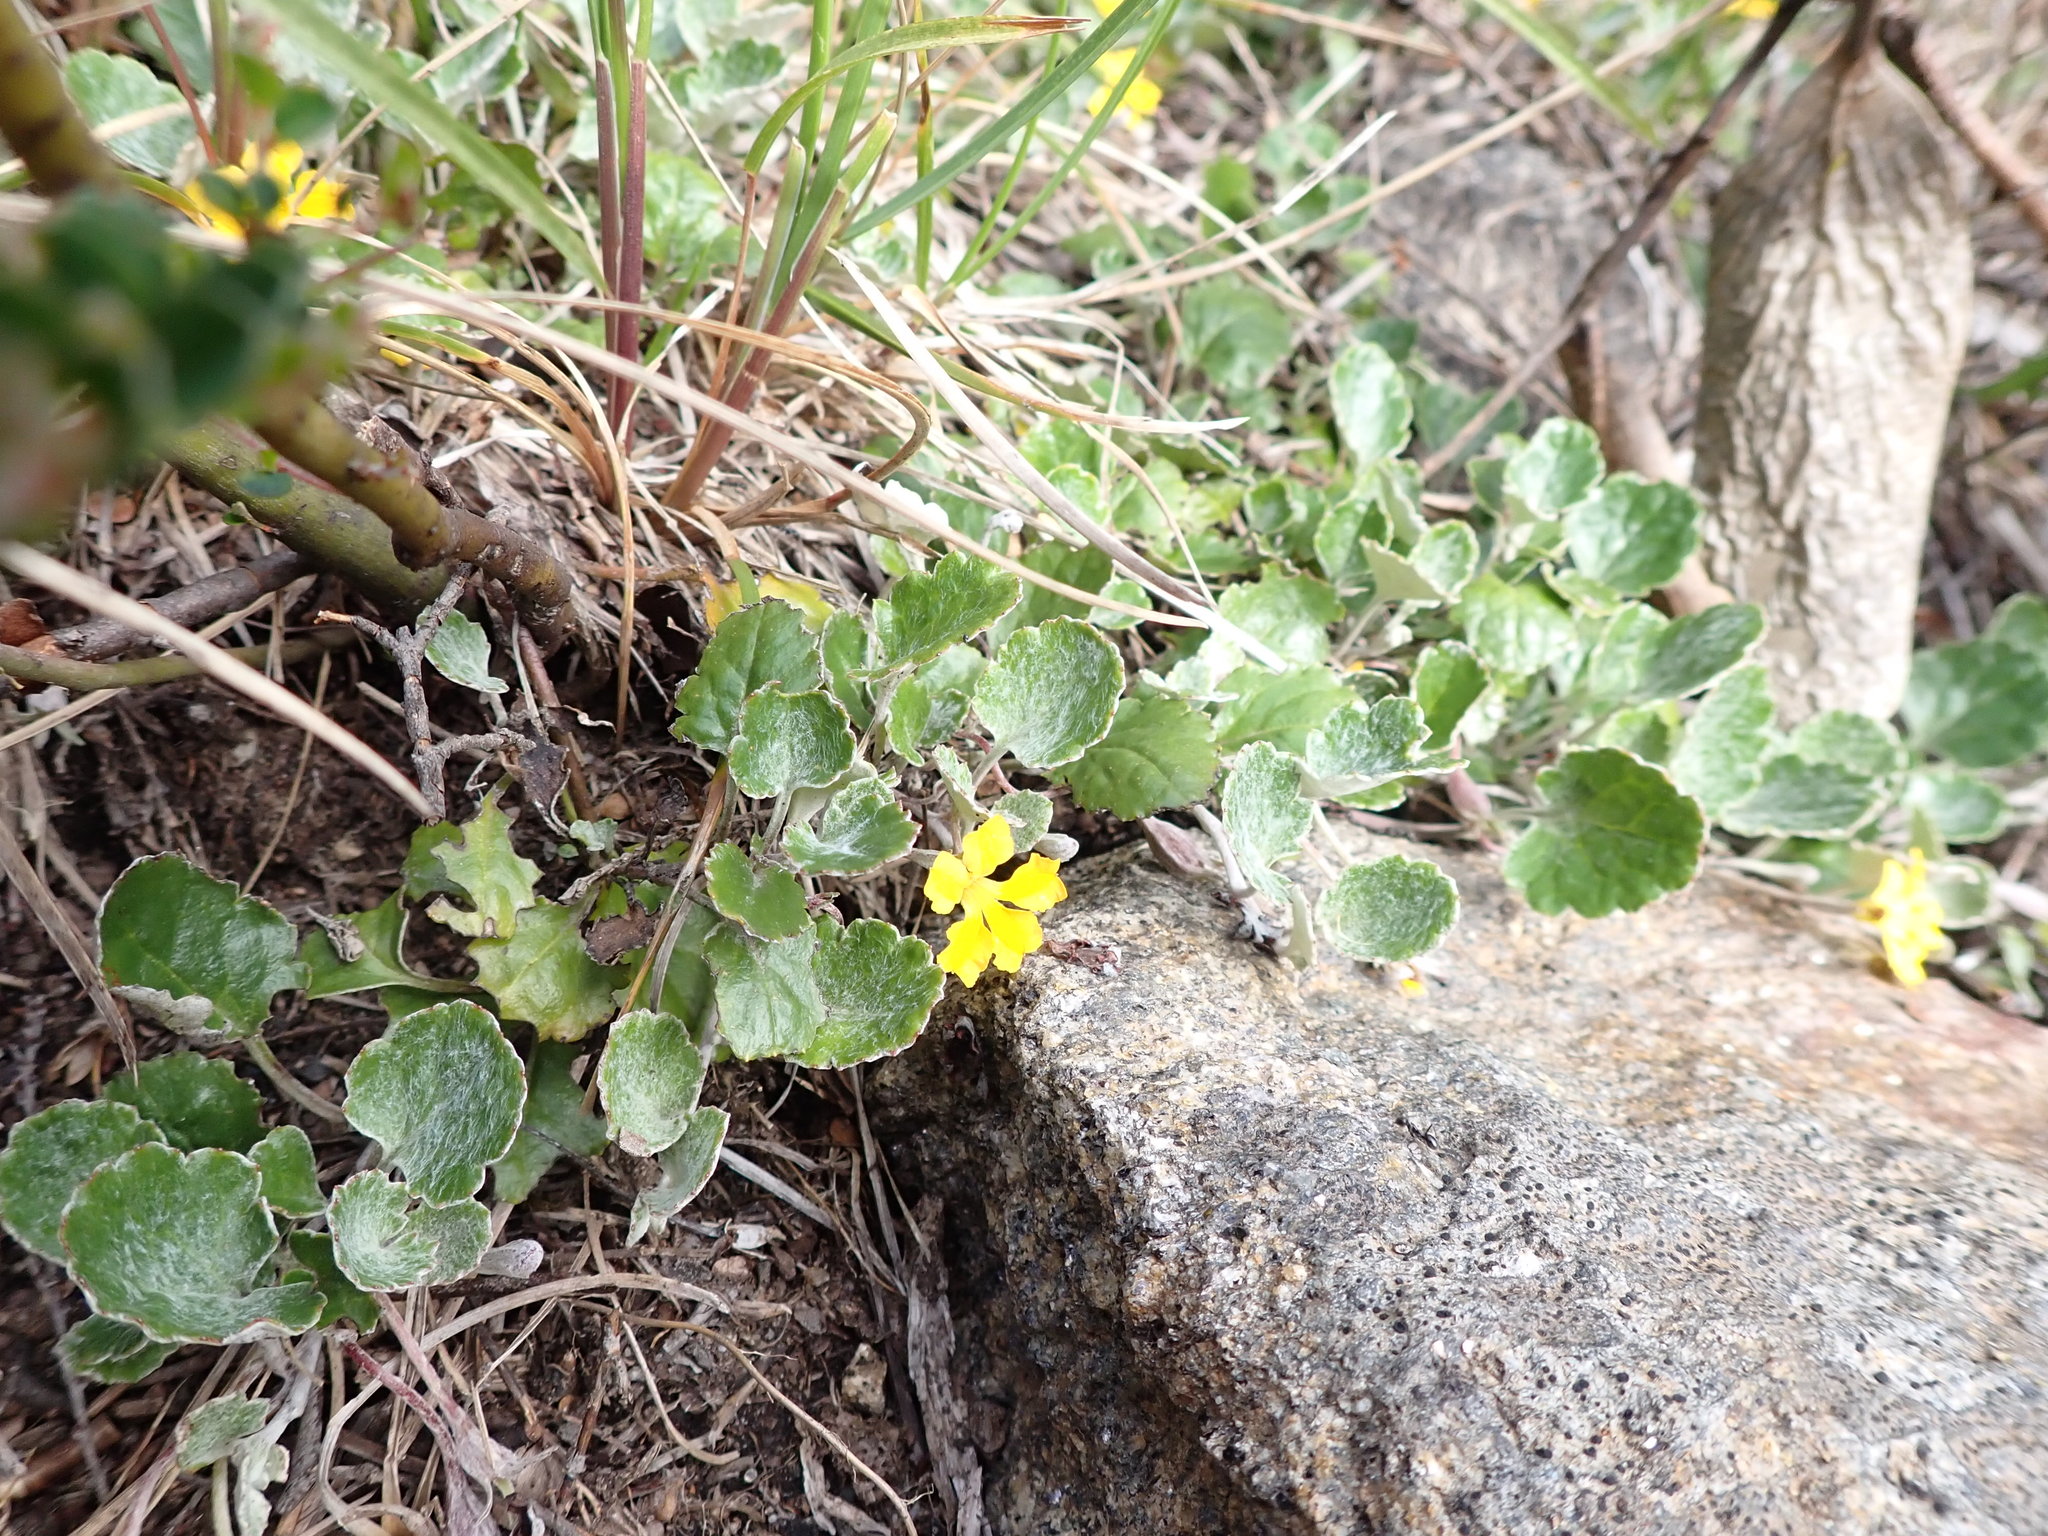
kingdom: Plantae
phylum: Tracheophyta
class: Magnoliopsida
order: Asterales
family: Goodeniaceae
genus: Goodenia
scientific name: Goodenia hederacea
